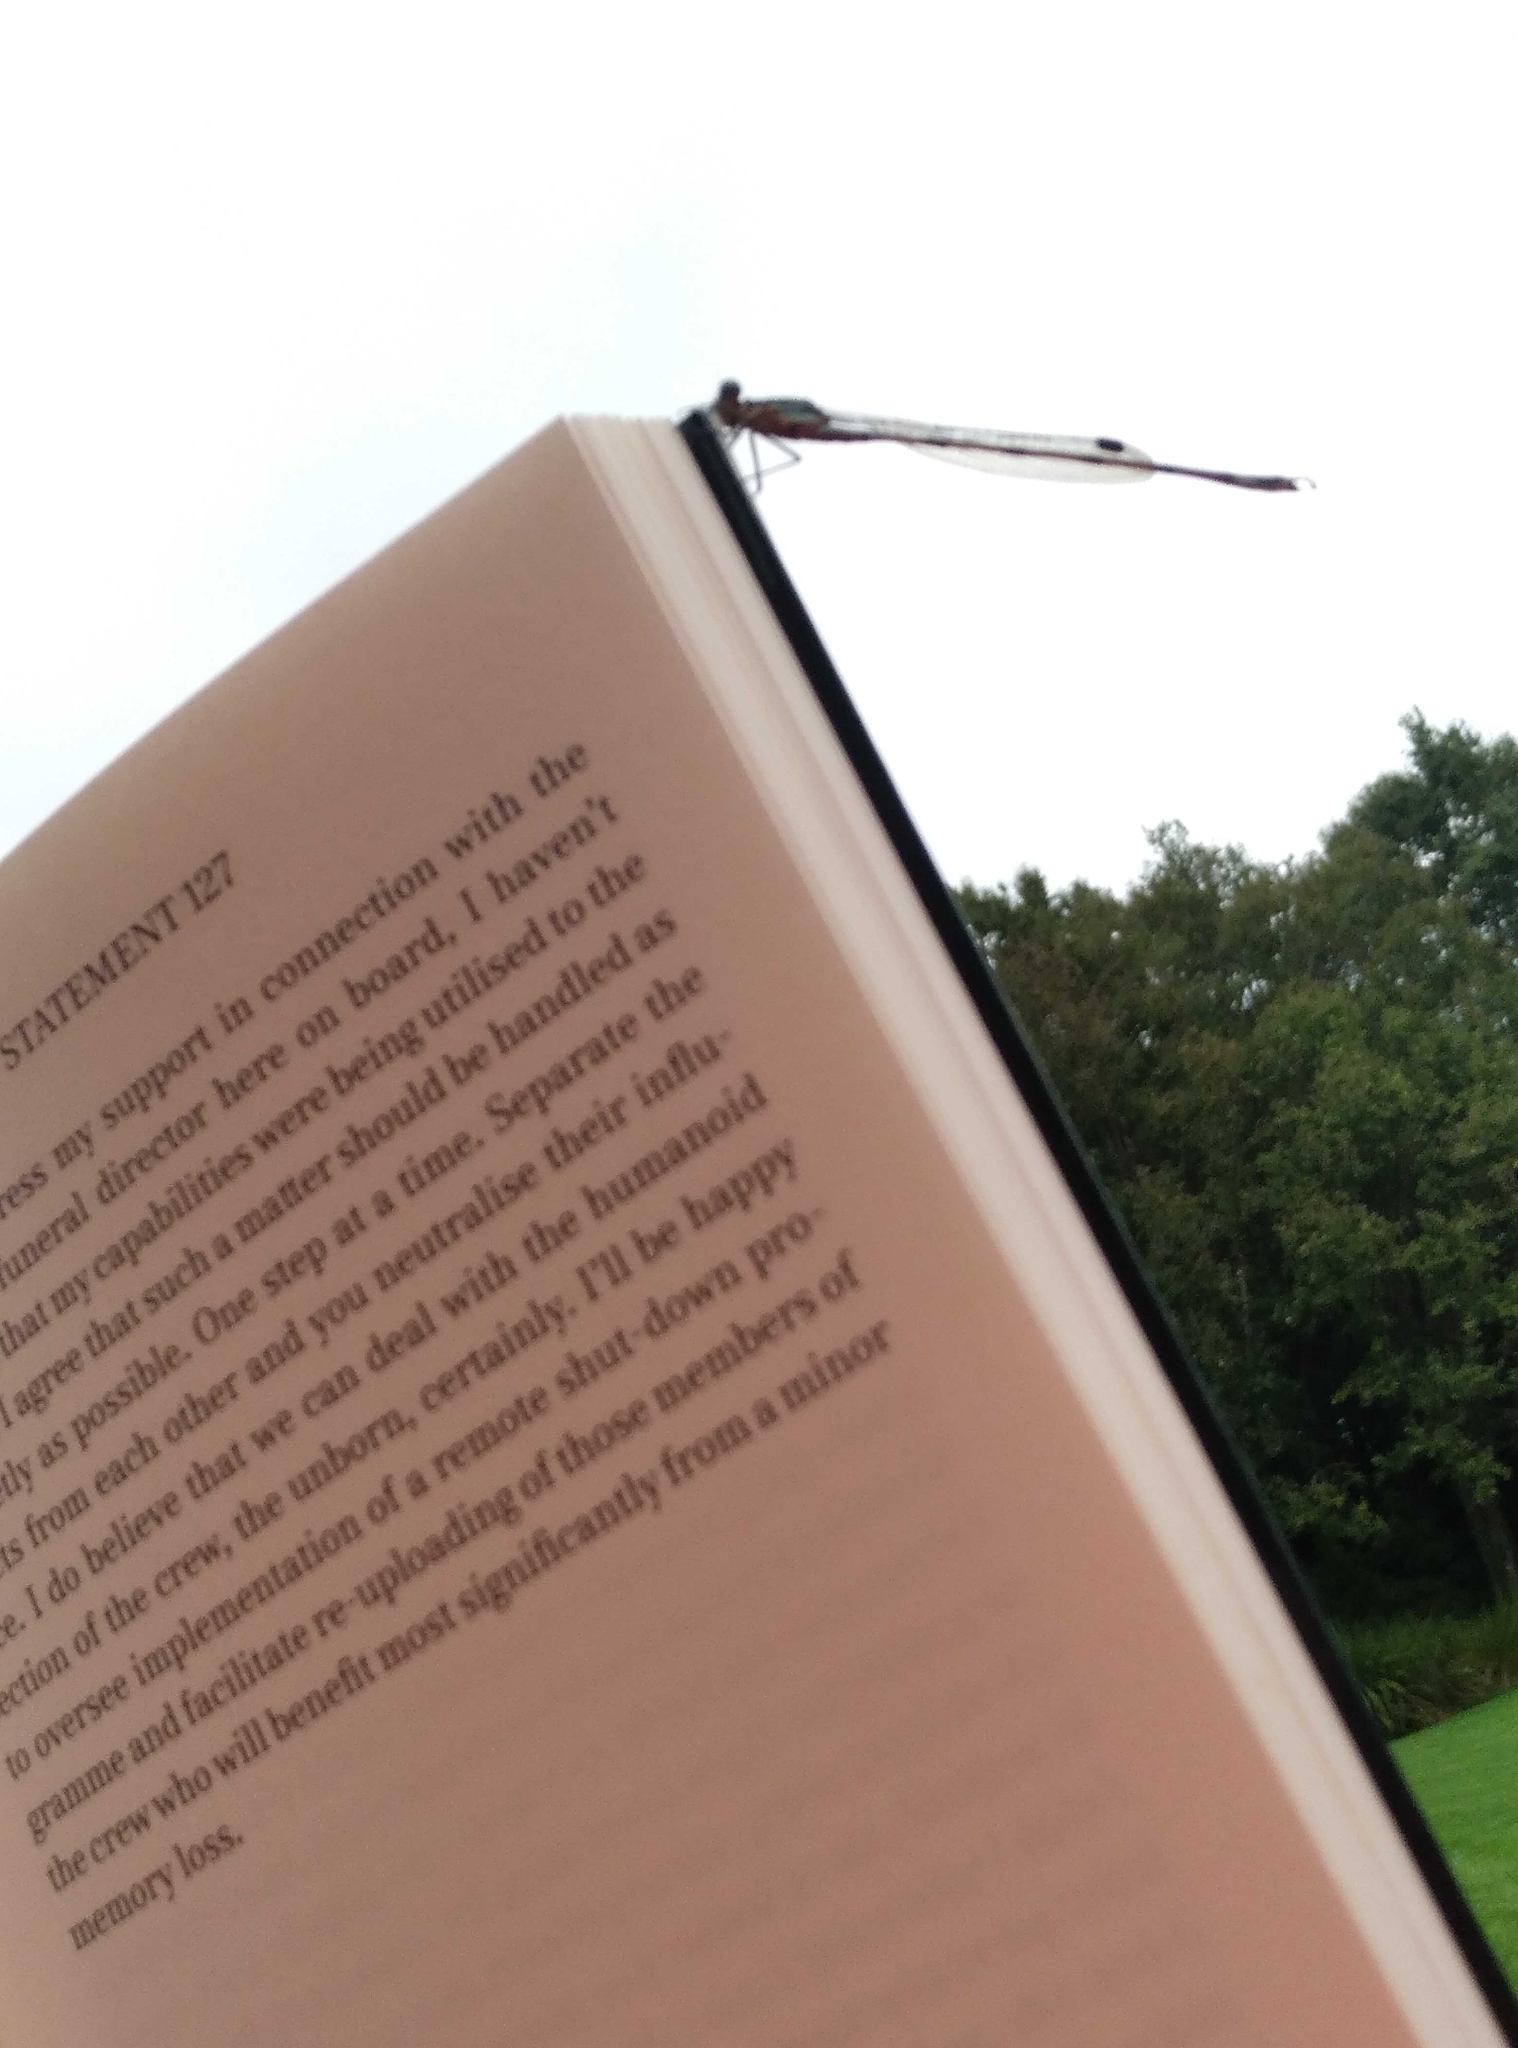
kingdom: Animalia
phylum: Arthropoda
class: Insecta
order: Odonata
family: Lestidae
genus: Austrolestes
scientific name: Austrolestes colensonis
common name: Blue damselfly
